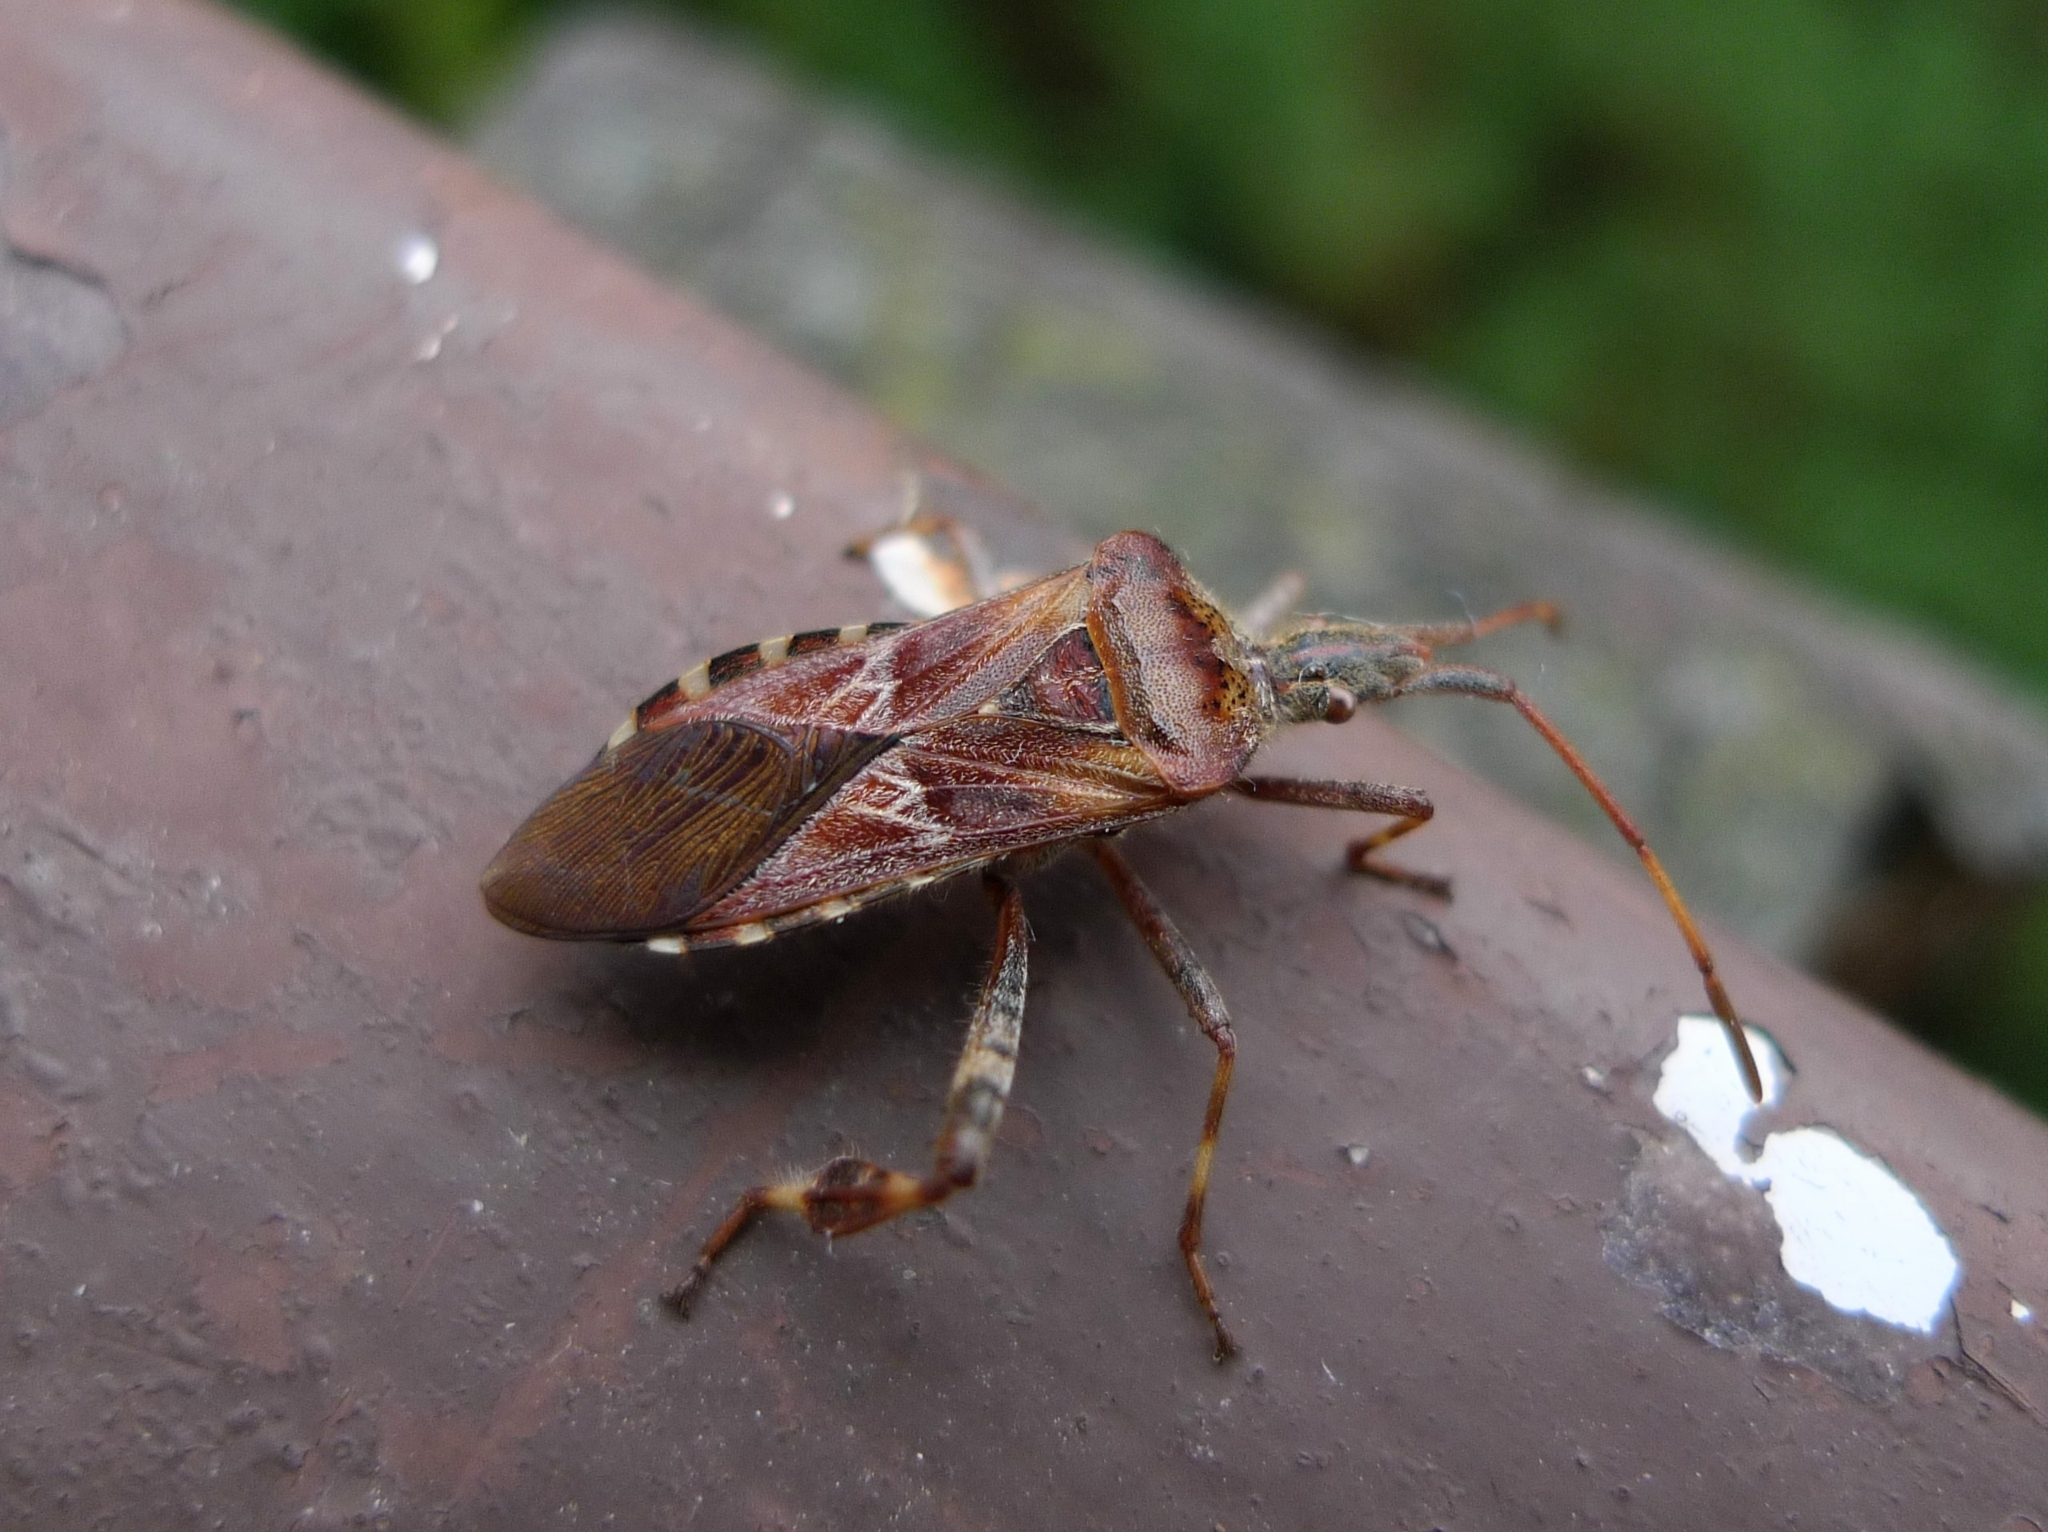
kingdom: Animalia
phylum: Arthropoda
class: Insecta
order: Hemiptera
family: Coreidae
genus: Leptoglossus
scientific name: Leptoglossus occidentalis
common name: Western conifer-seed bug
